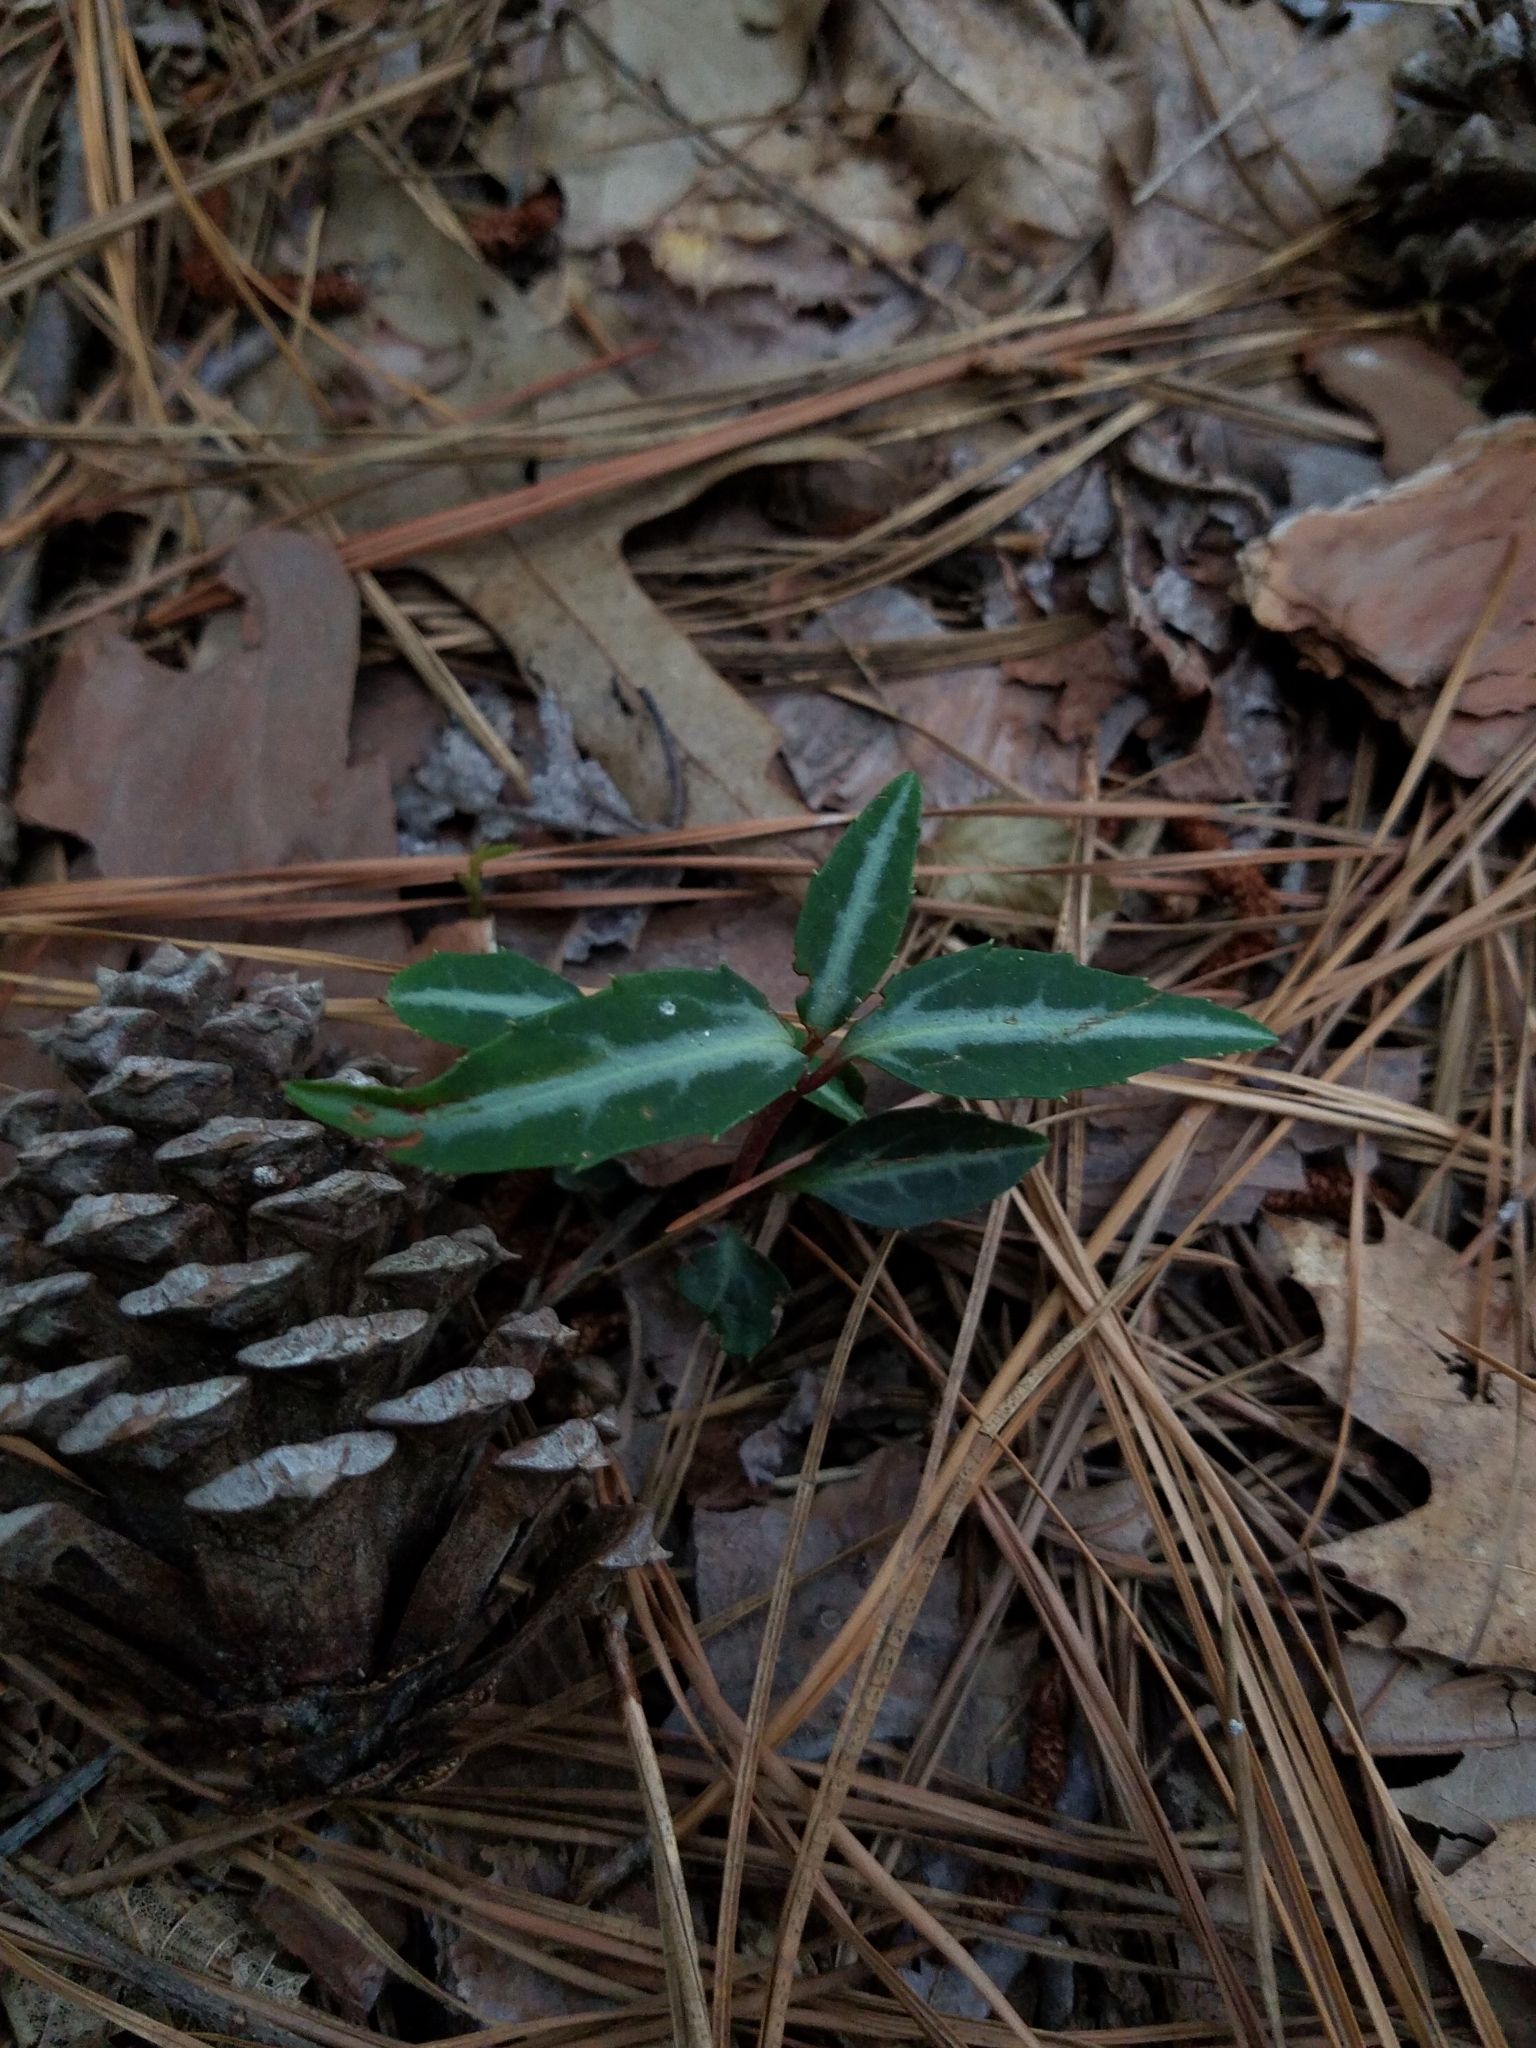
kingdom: Plantae
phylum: Tracheophyta
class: Magnoliopsida
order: Ericales
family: Ericaceae
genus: Chimaphila
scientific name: Chimaphila maculata
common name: Spotted pipsissewa
